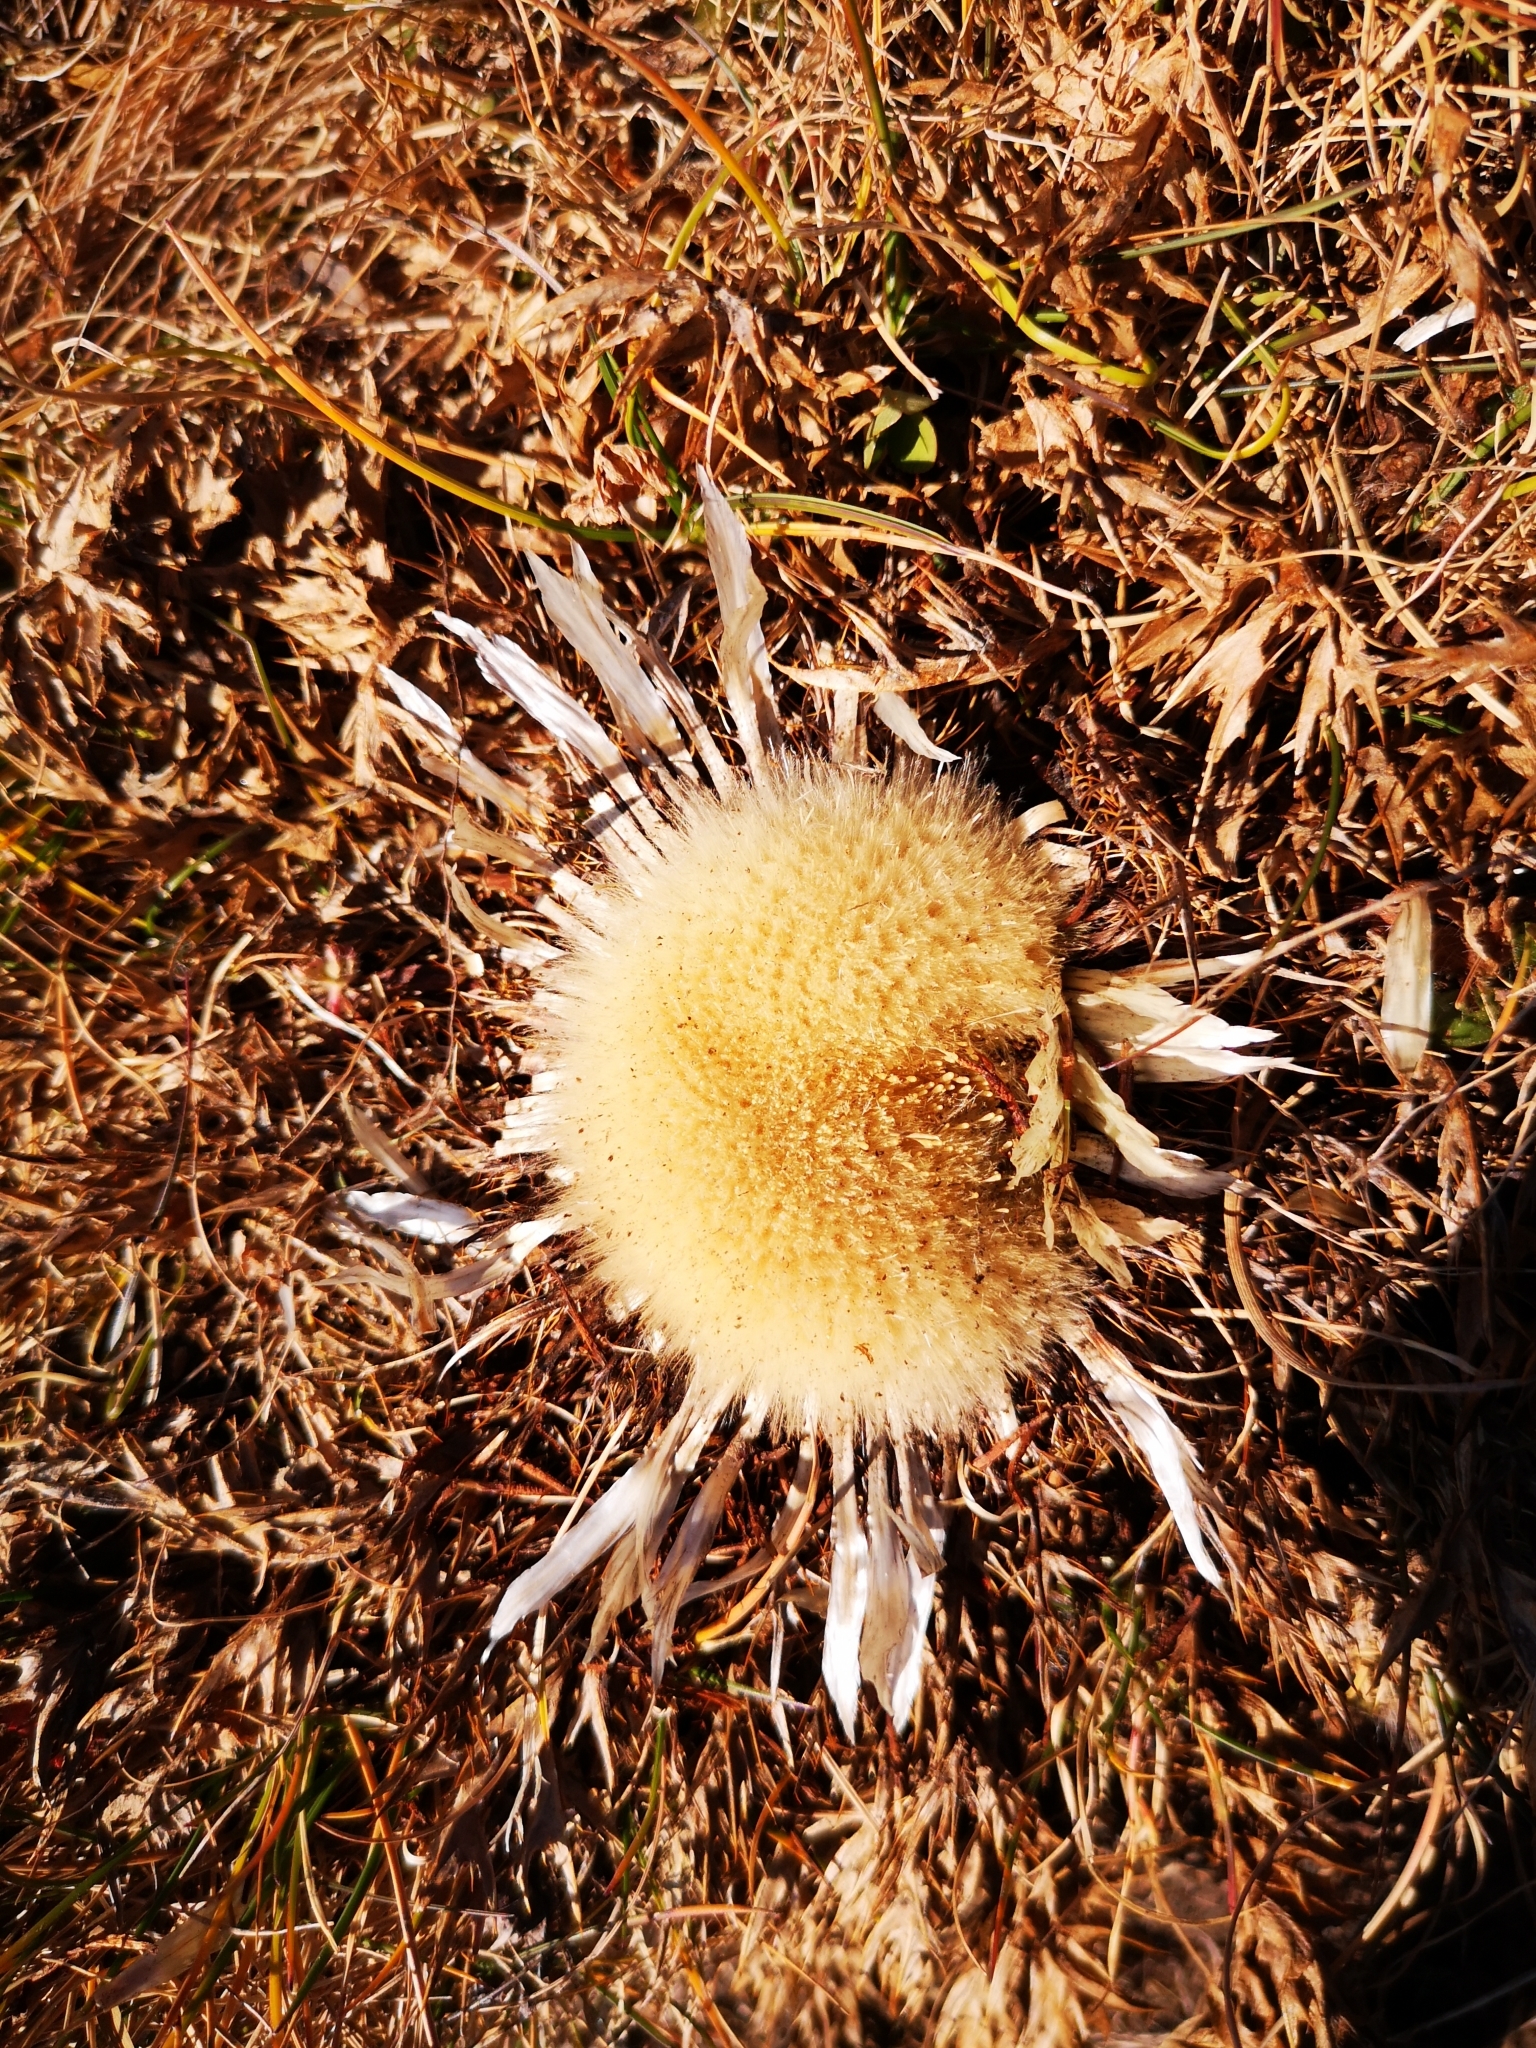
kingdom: Plantae
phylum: Tracheophyta
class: Magnoliopsida
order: Asterales
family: Asteraceae
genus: Carlina
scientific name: Carlina acaulis
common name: Stemless carline thistle
